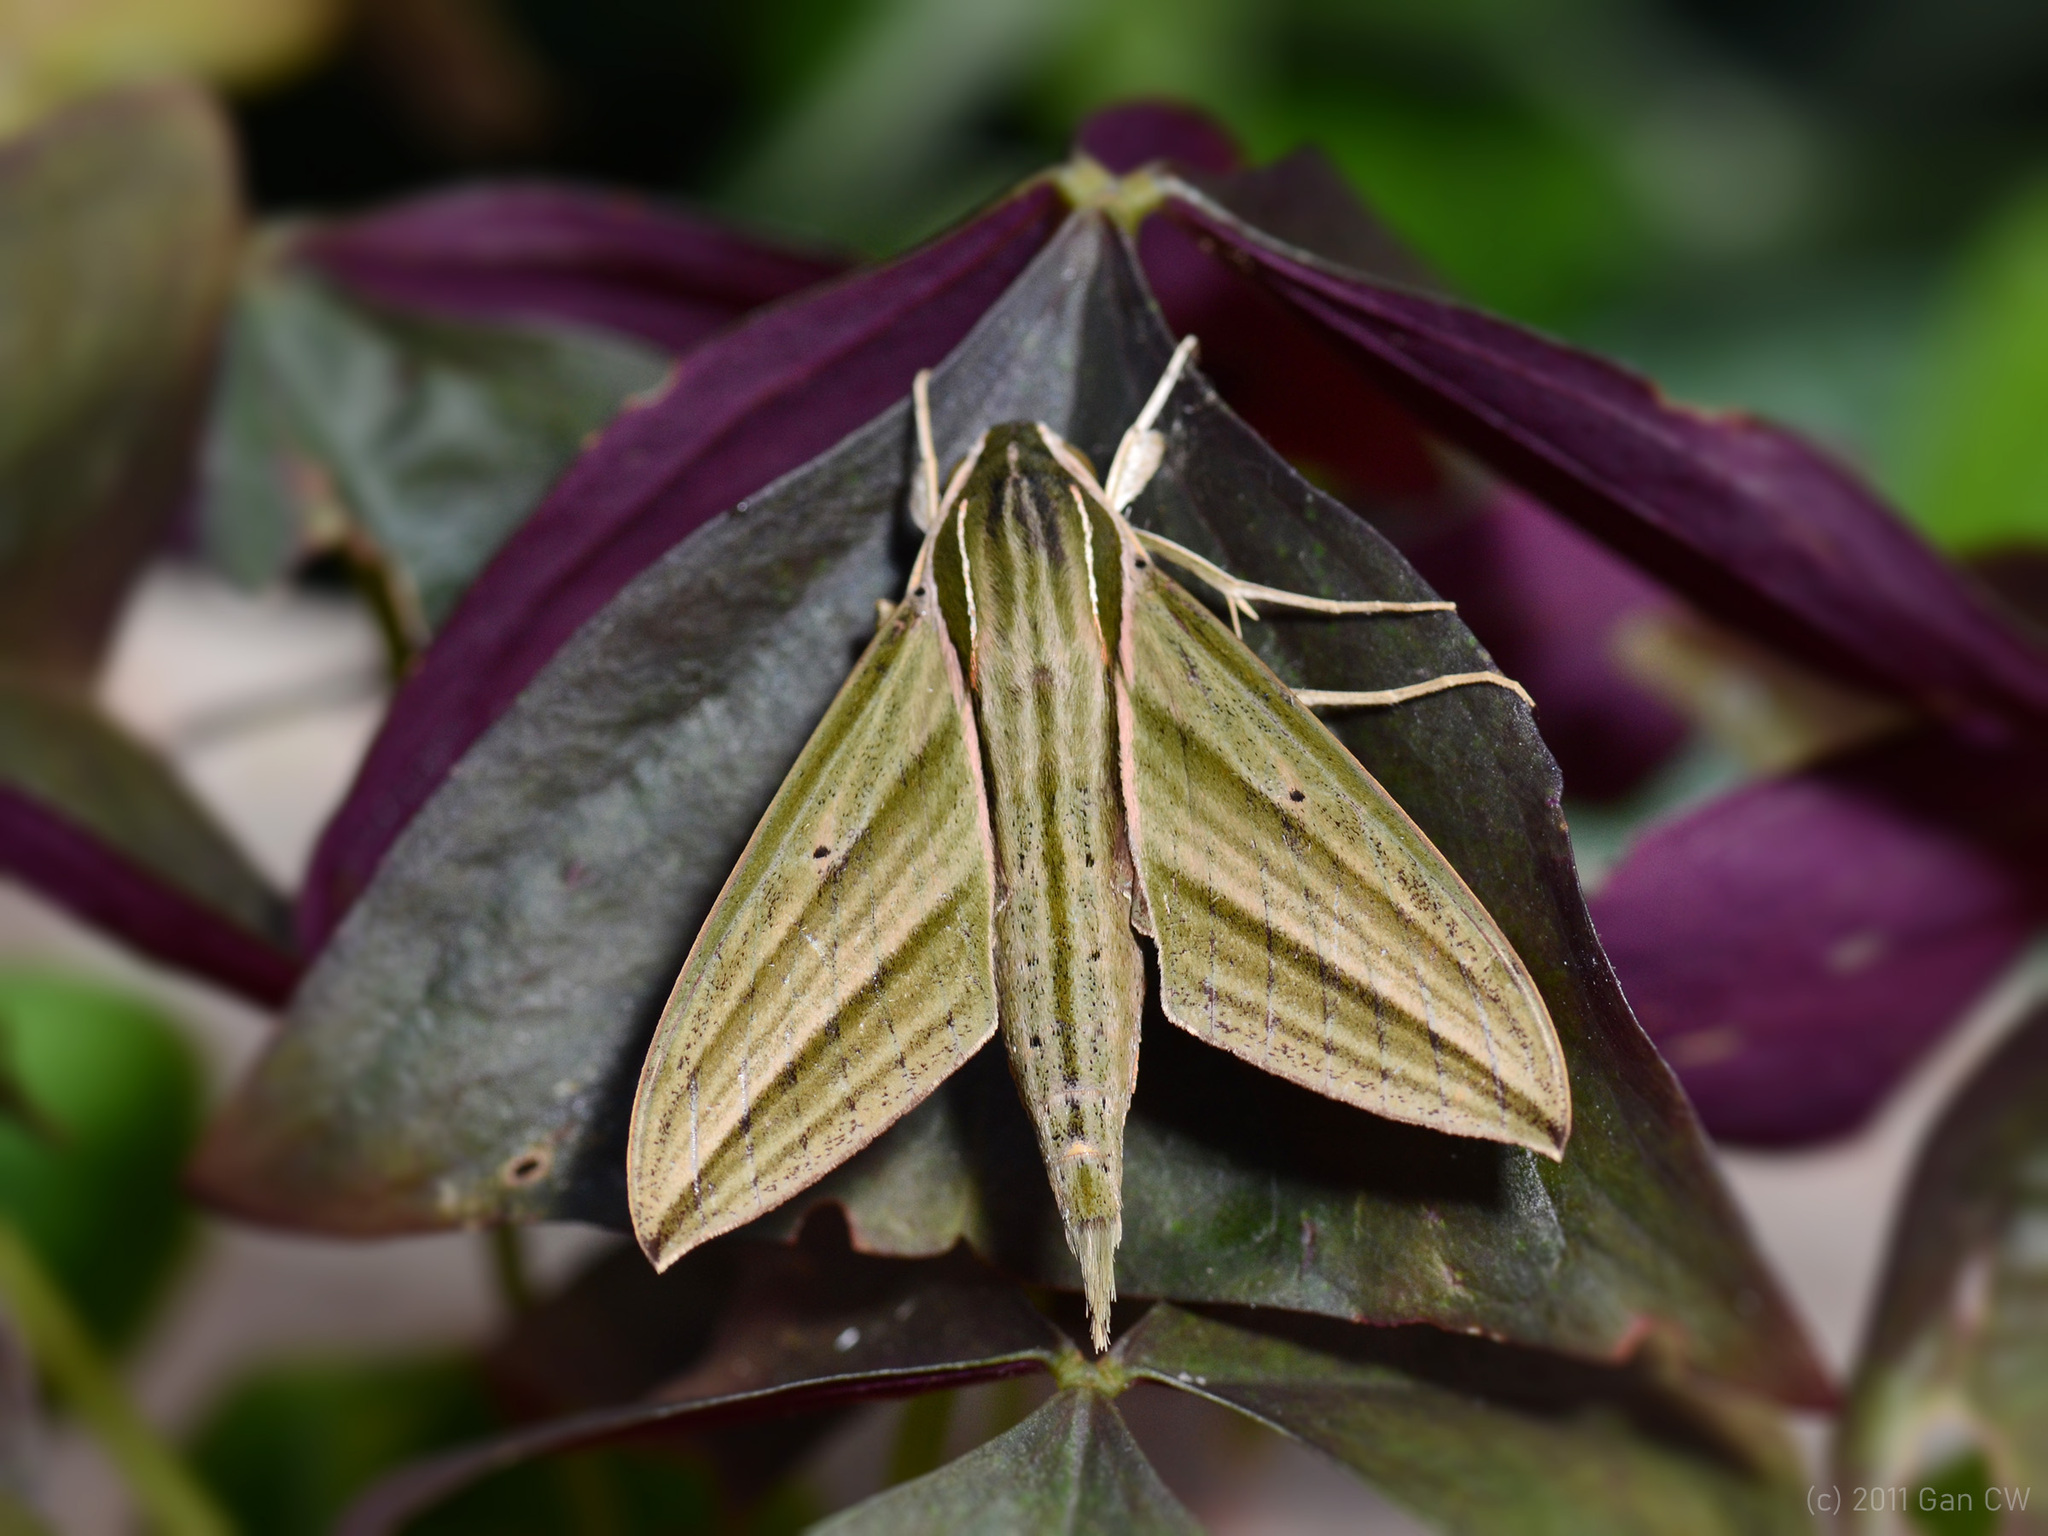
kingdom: Animalia
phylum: Arthropoda
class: Insecta
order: Lepidoptera
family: Sphingidae
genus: Theretra
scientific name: Theretra manilae
